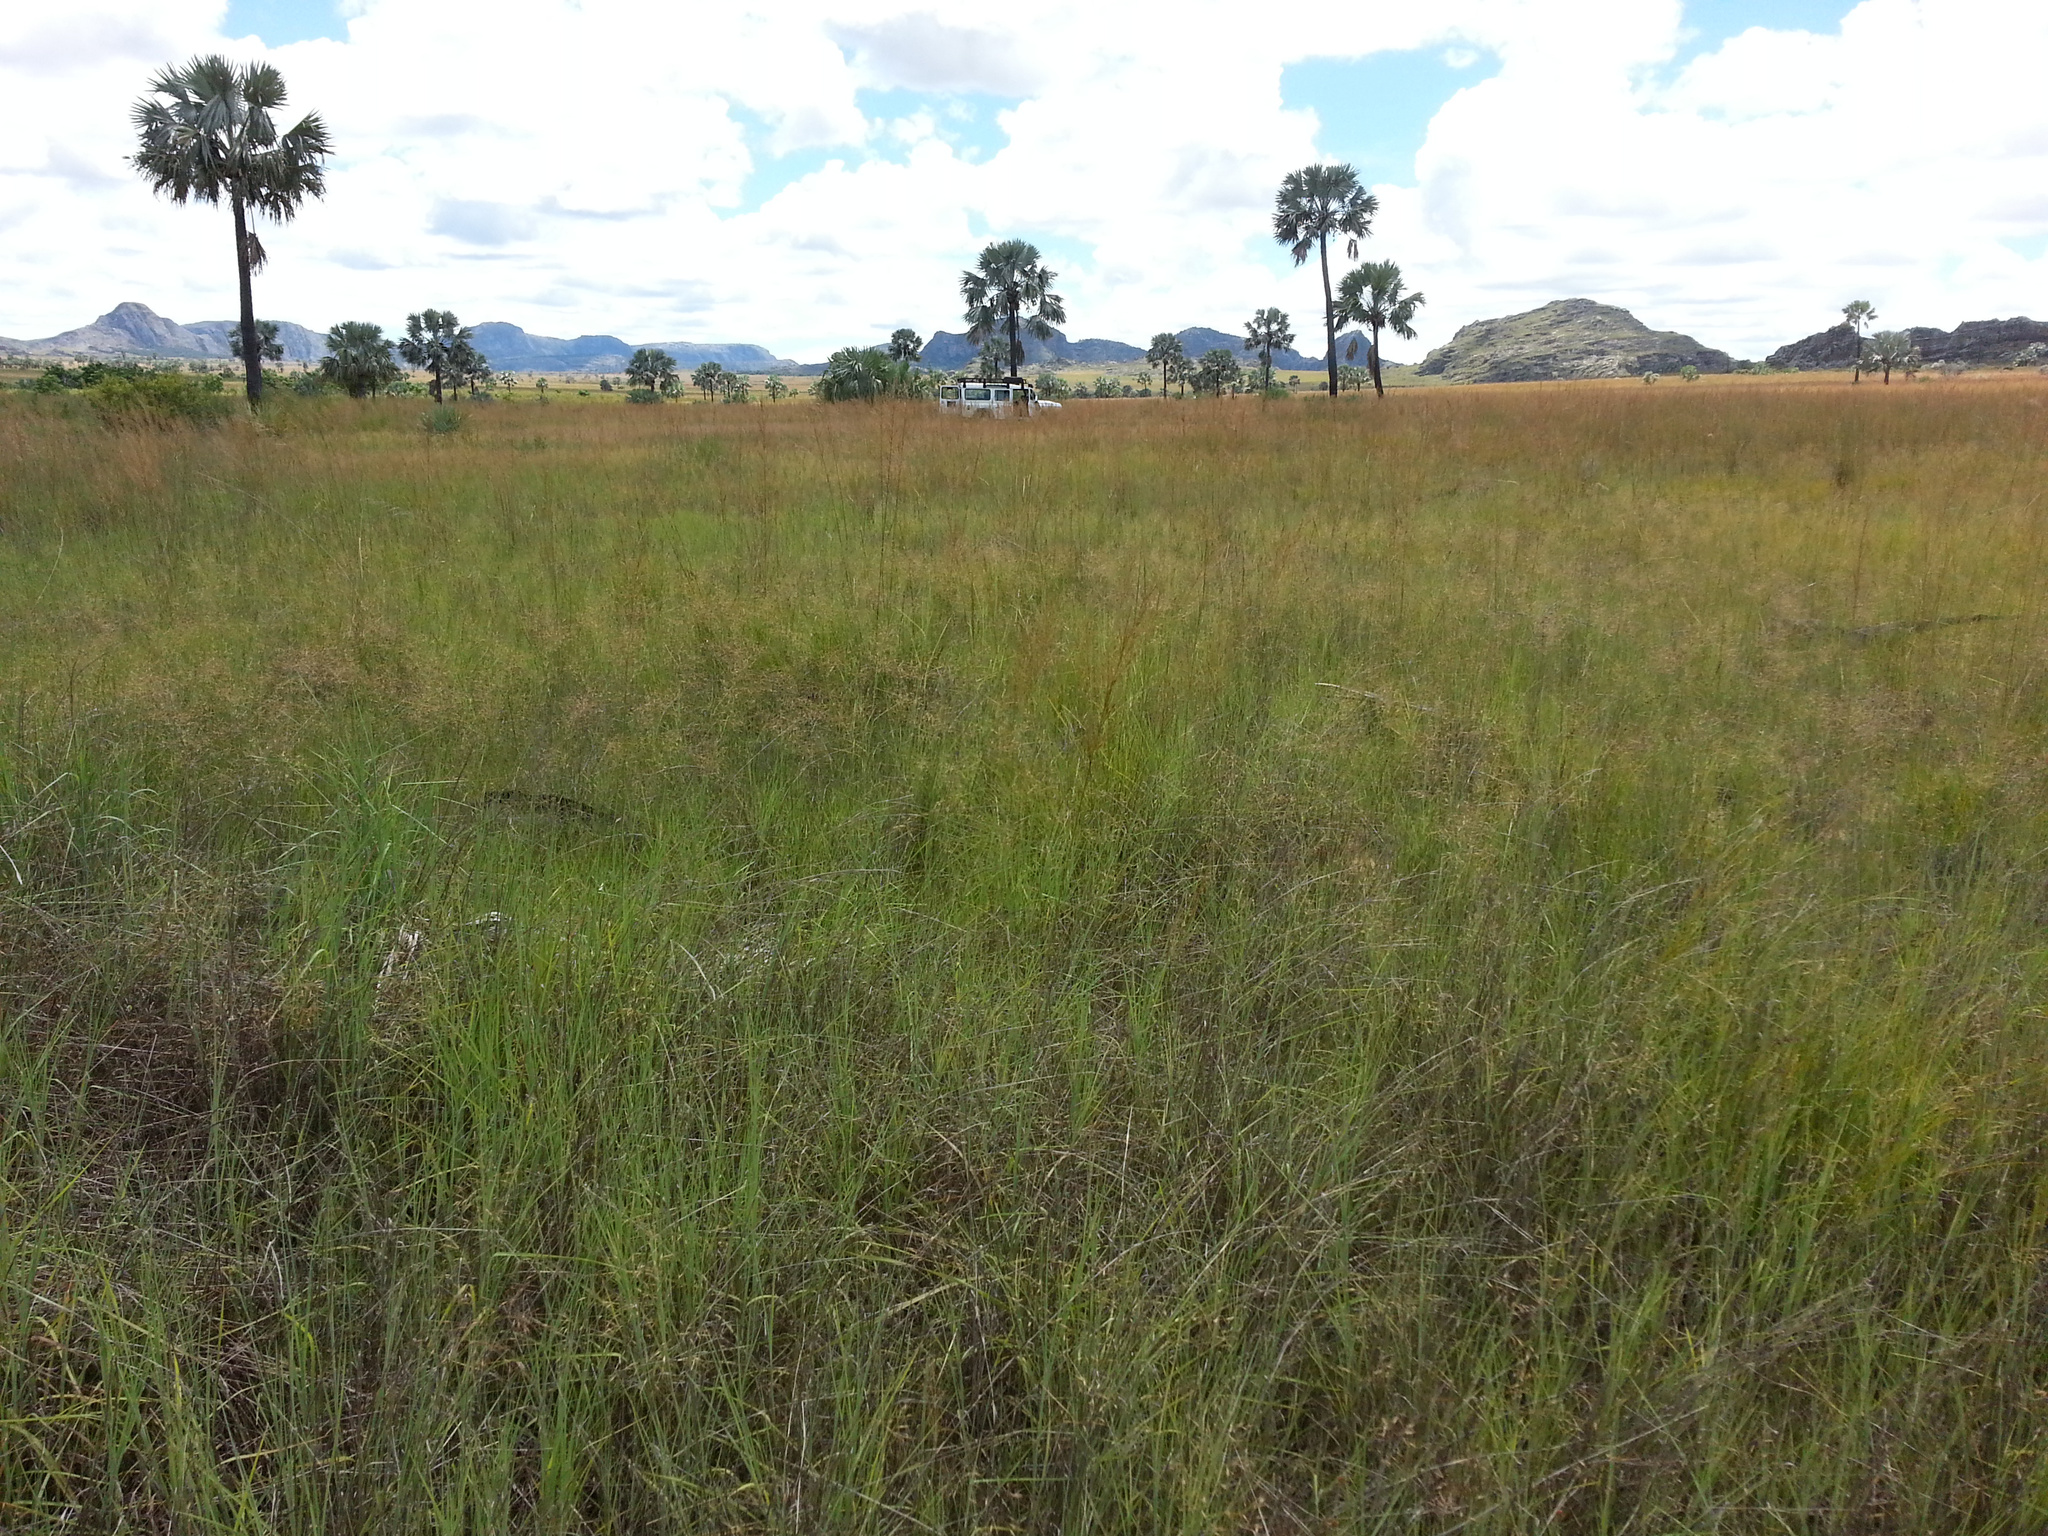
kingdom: Plantae
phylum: Tracheophyta
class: Liliopsida
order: Arecales
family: Arecaceae
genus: Bismarckia
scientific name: Bismarckia nobilis
